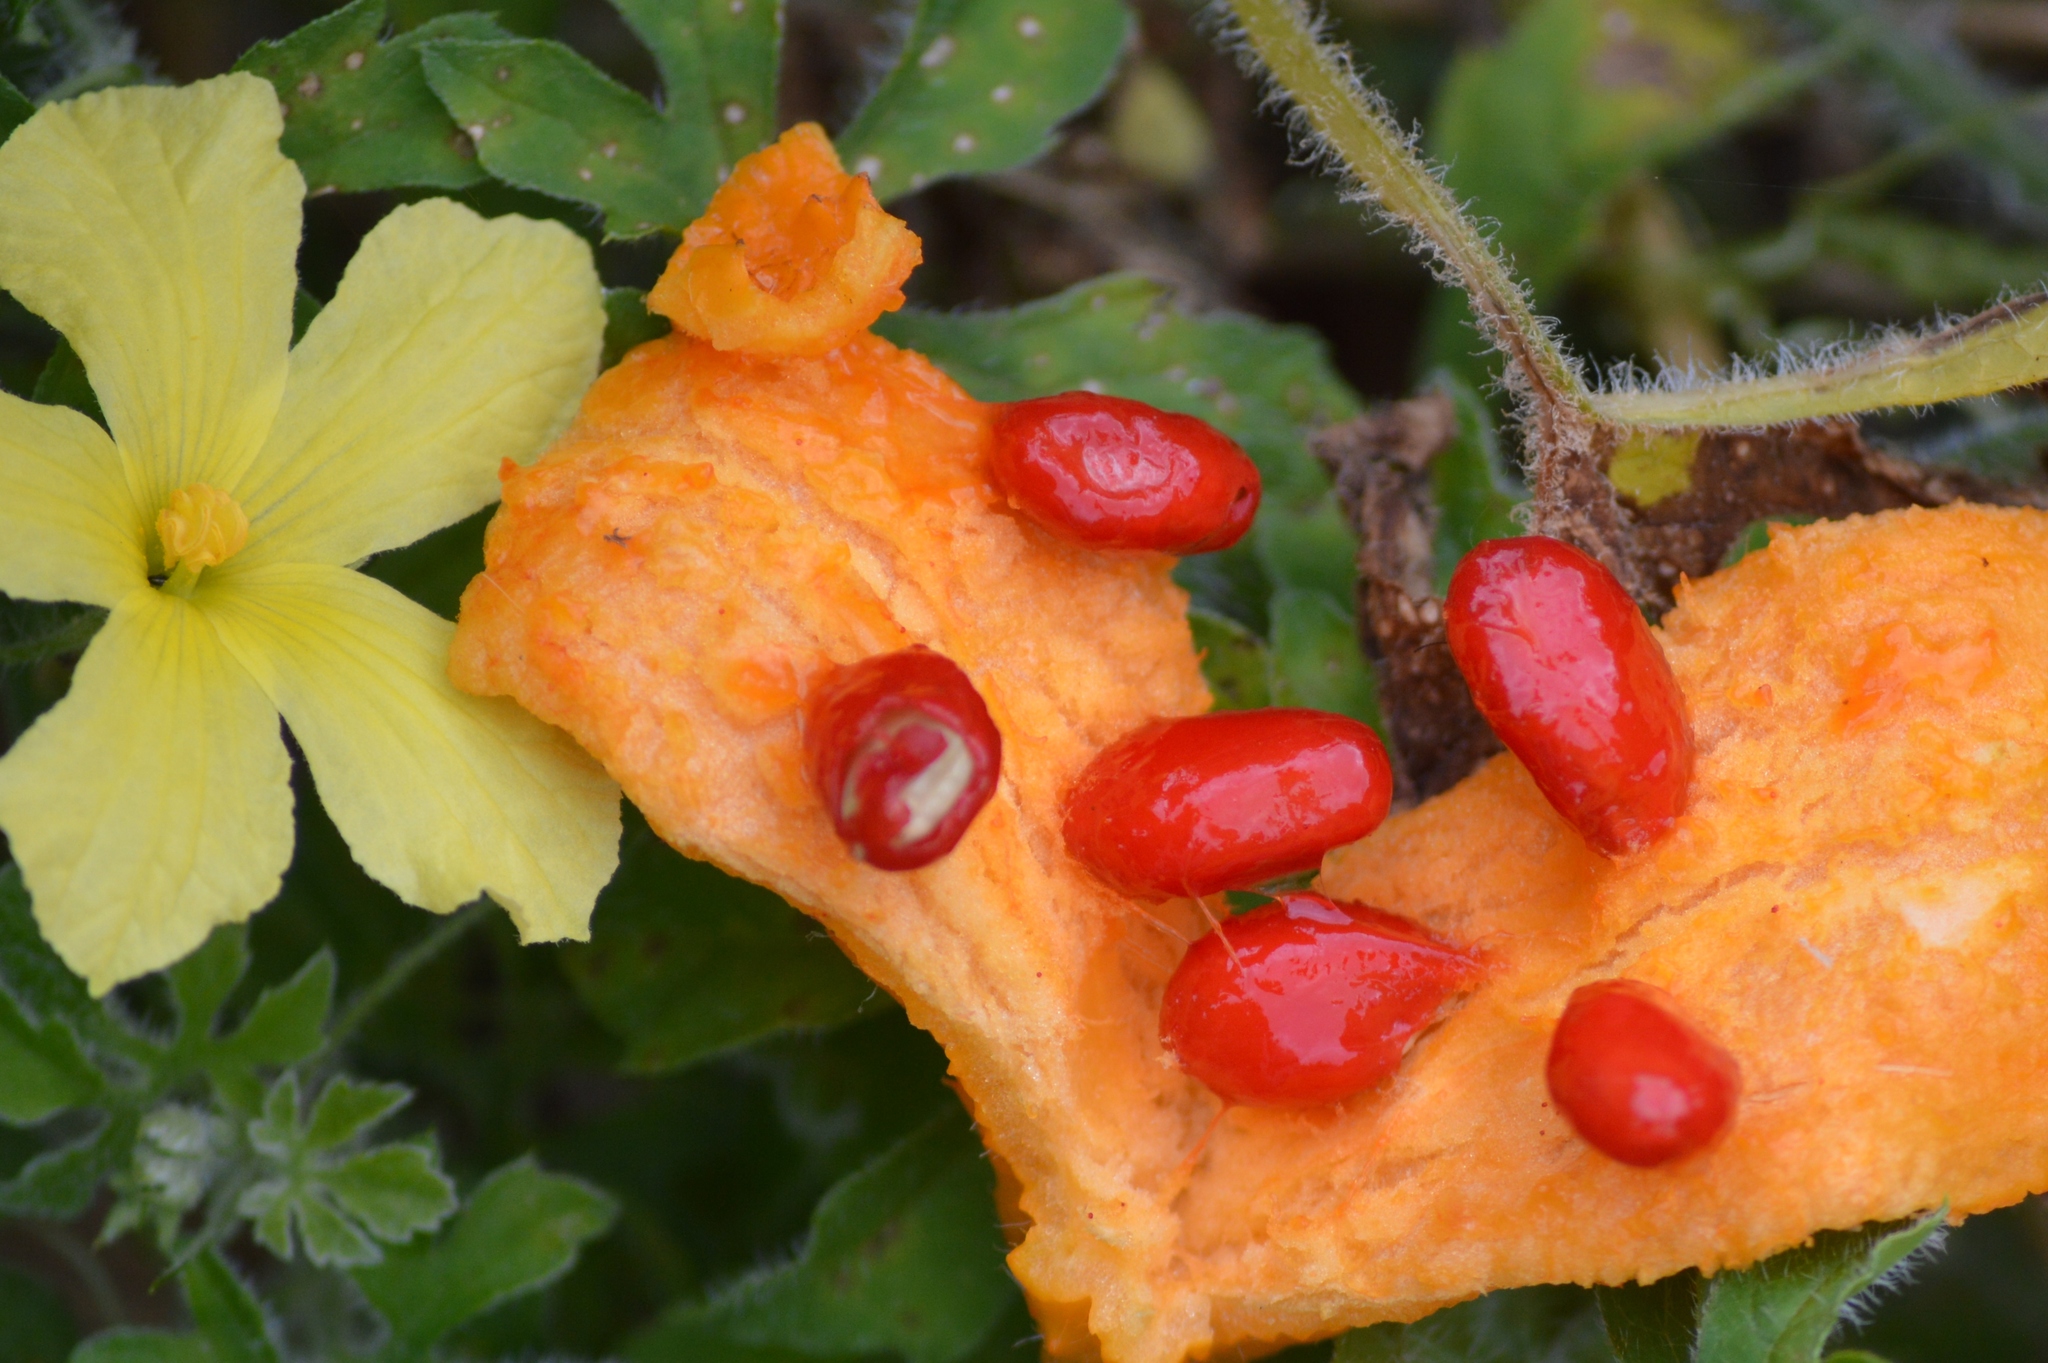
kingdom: Plantae
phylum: Tracheophyta
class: Magnoliopsida
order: Cucurbitales
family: Cucurbitaceae
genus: Momordica
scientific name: Momordica charantia
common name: Balsampear
